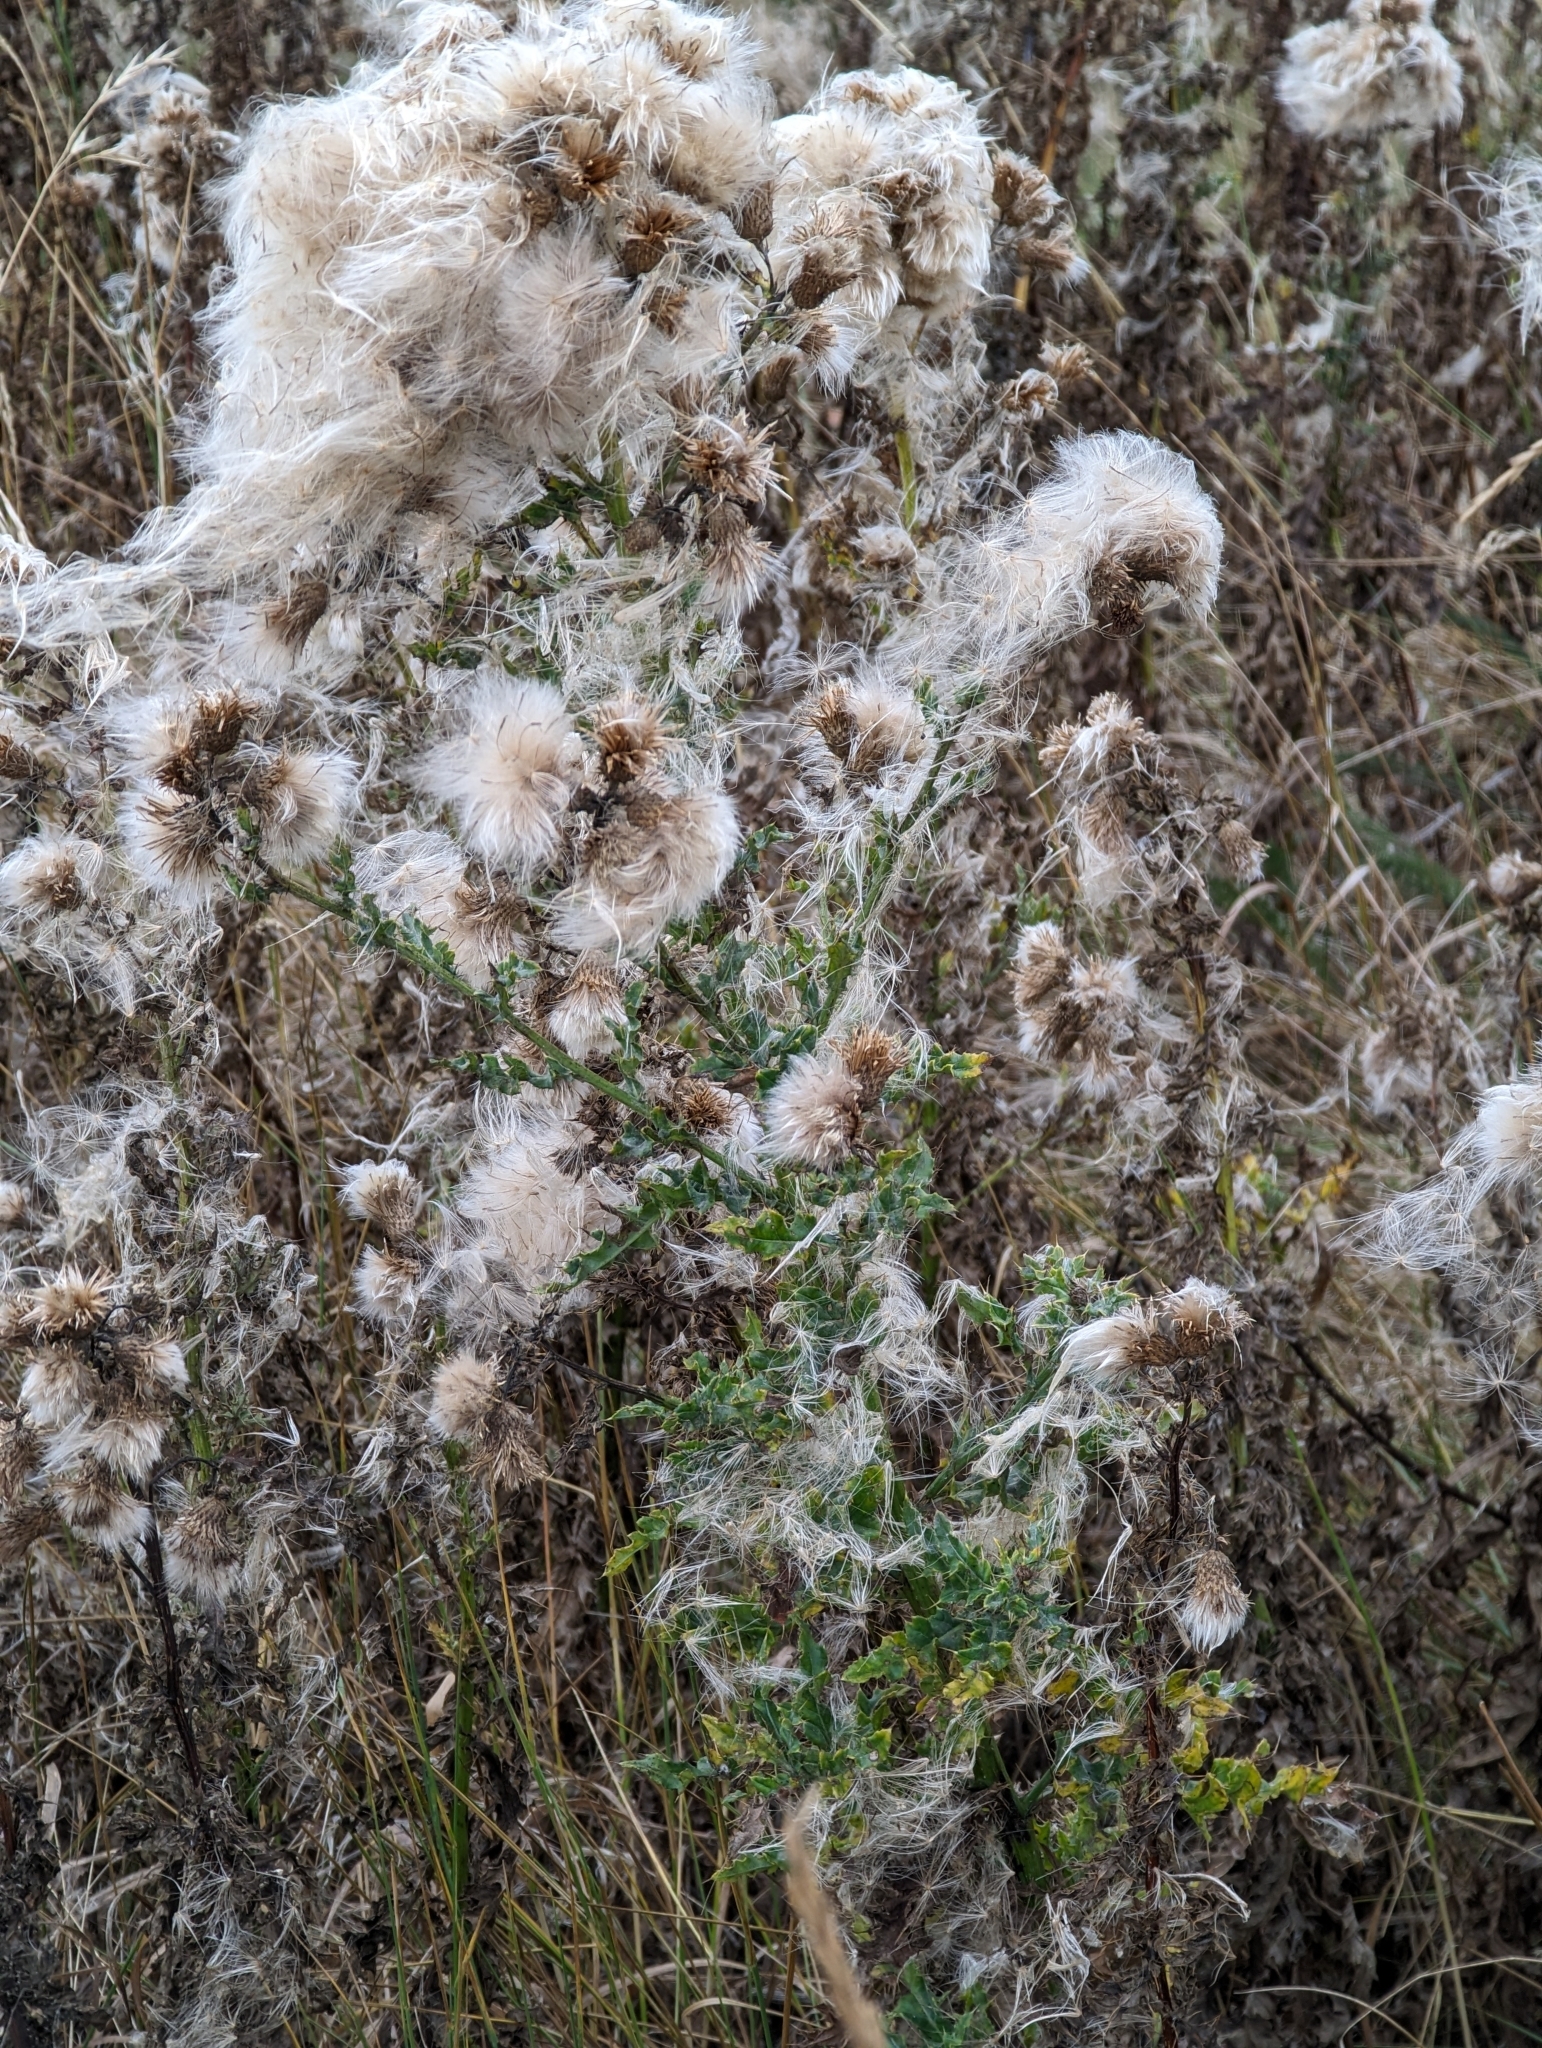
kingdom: Plantae
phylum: Tracheophyta
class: Magnoliopsida
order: Asterales
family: Asteraceae
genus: Cirsium
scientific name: Cirsium arvense
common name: Creeping thistle
